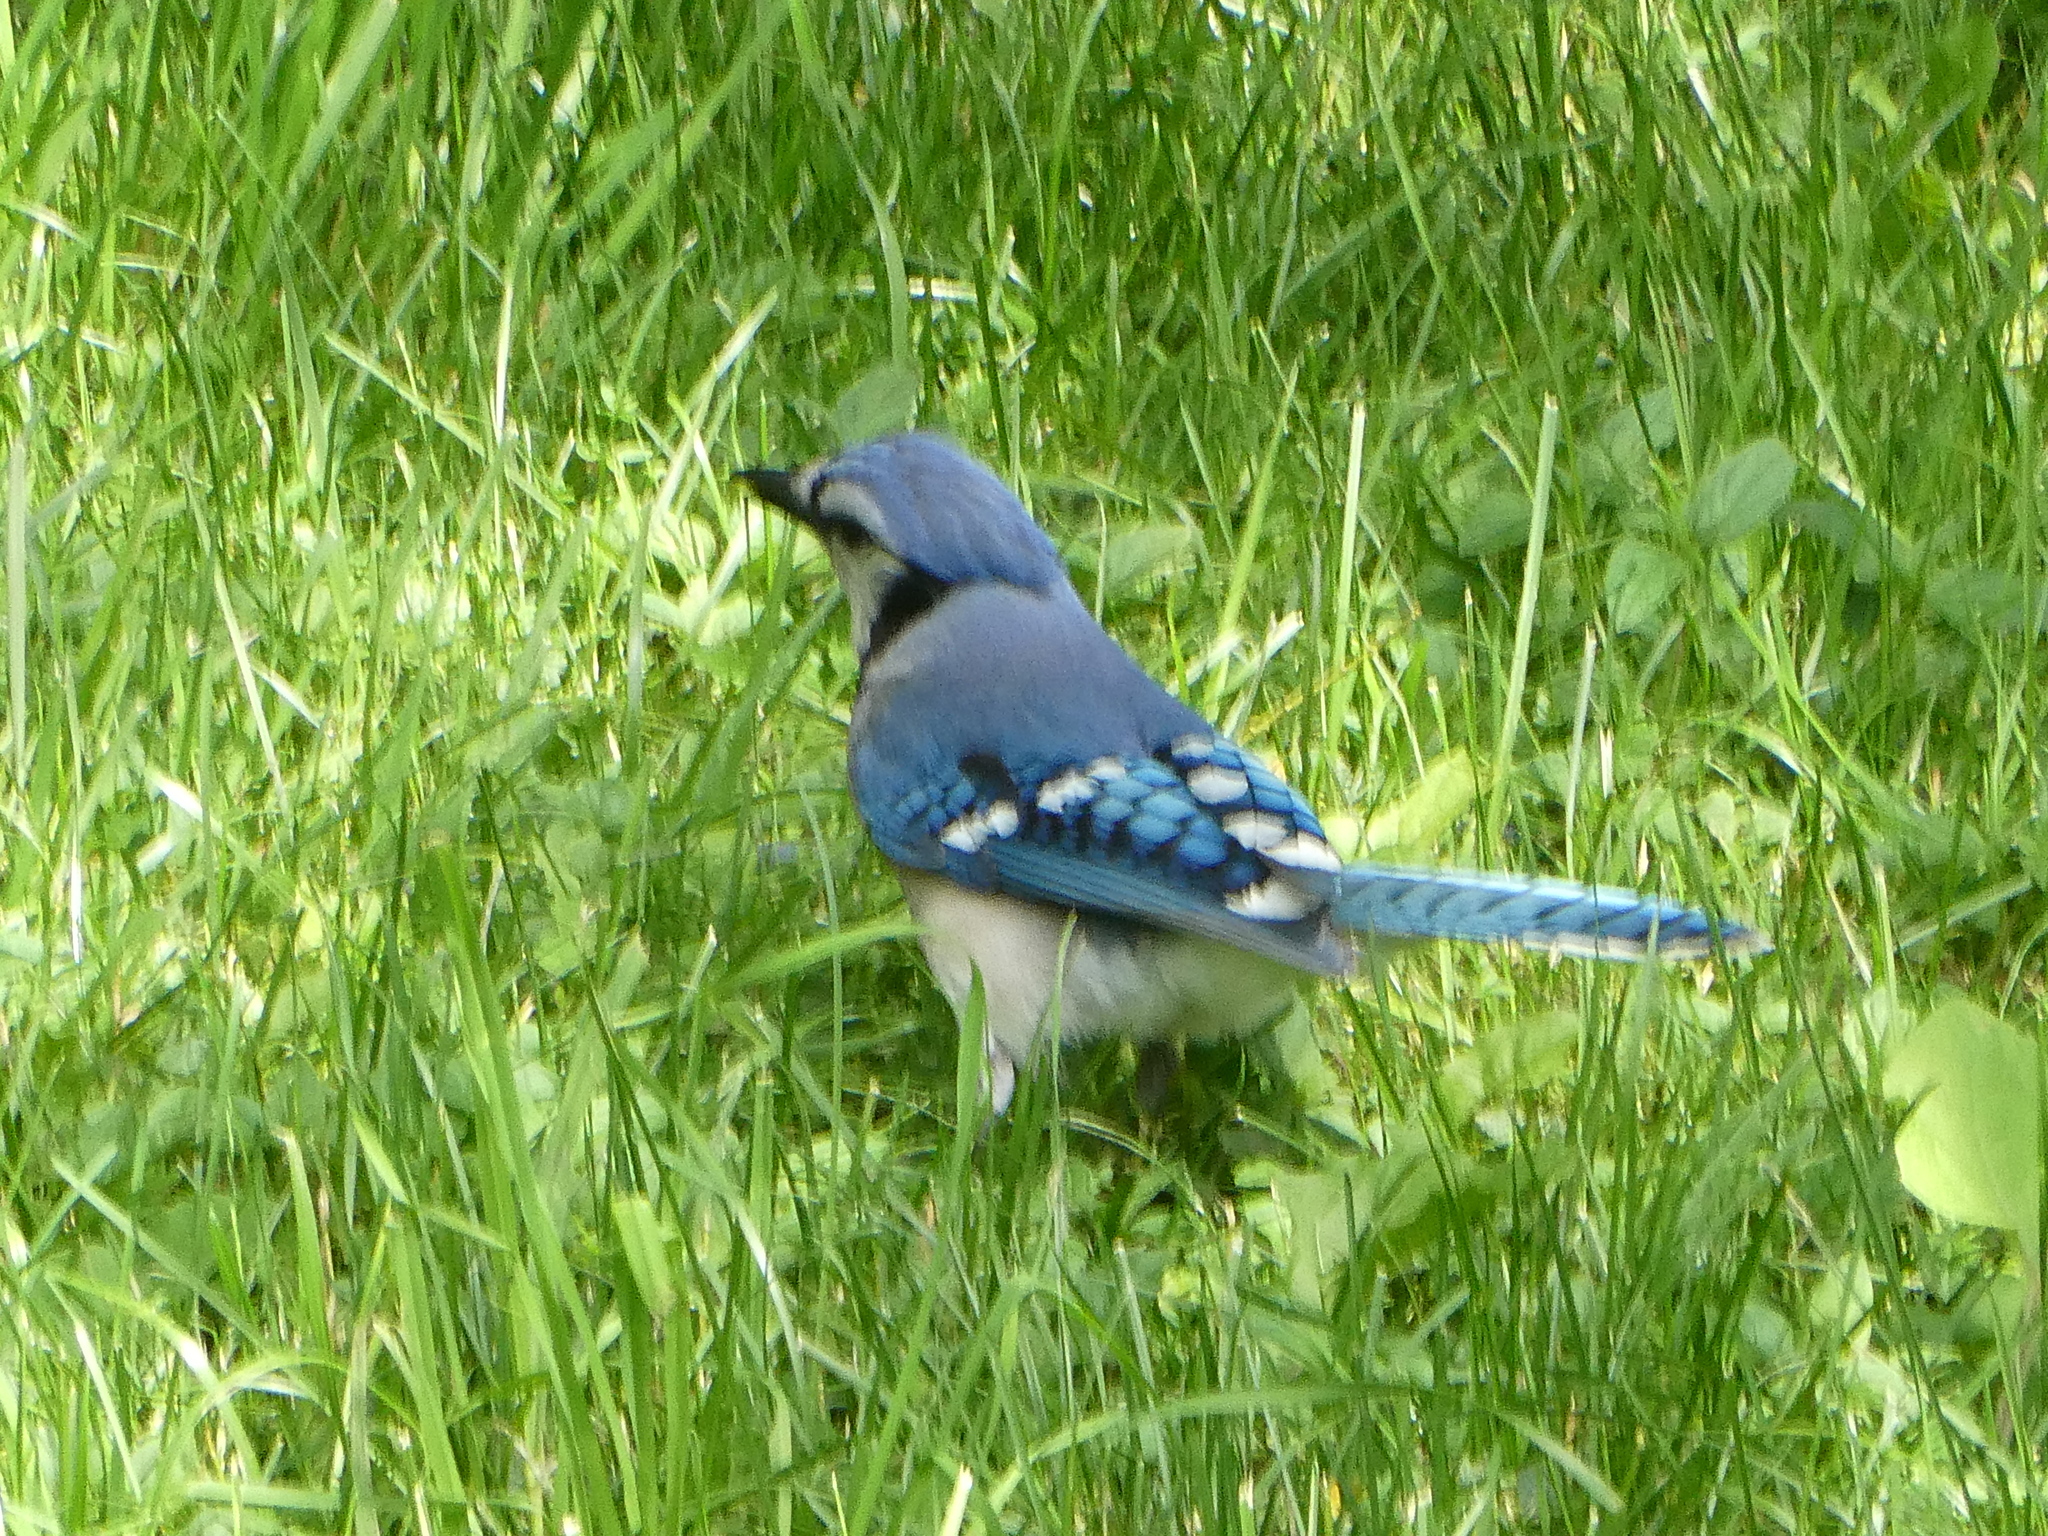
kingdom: Animalia
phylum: Chordata
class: Aves
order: Passeriformes
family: Corvidae
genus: Cyanocitta
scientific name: Cyanocitta cristata
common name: Blue jay
